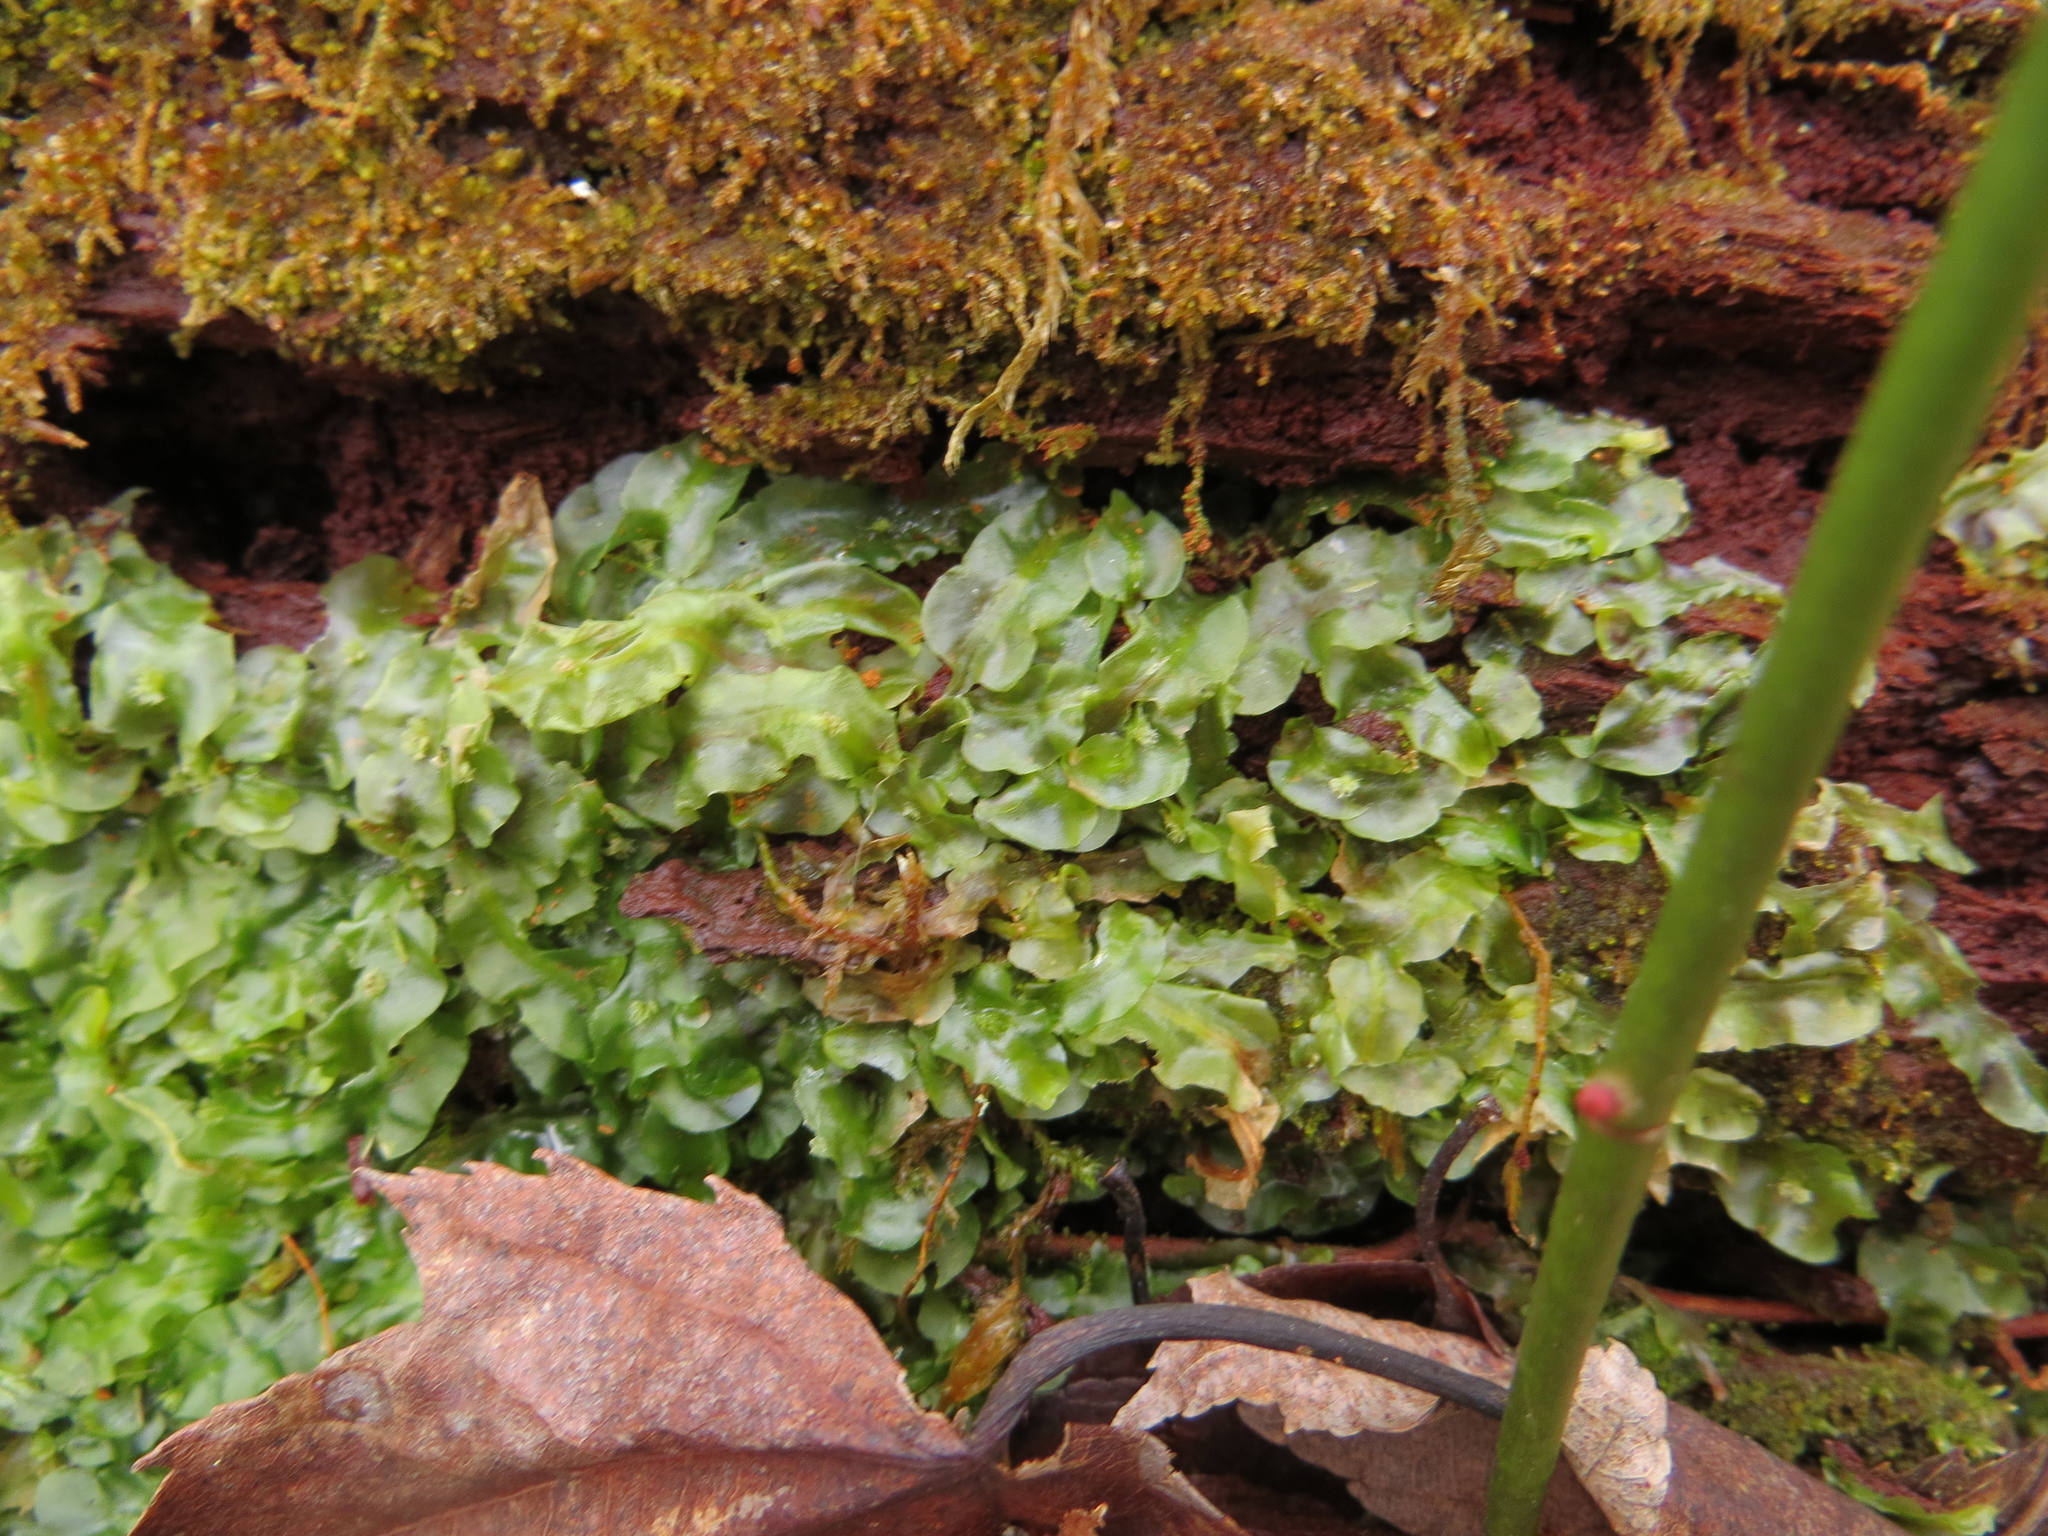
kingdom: Plantae
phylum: Marchantiophyta
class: Jungermanniopsida
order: Pallaviciniales
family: Pallaviciniaceae
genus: Pallavicinia
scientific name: Pallavicinia lyellii
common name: Veilwort
